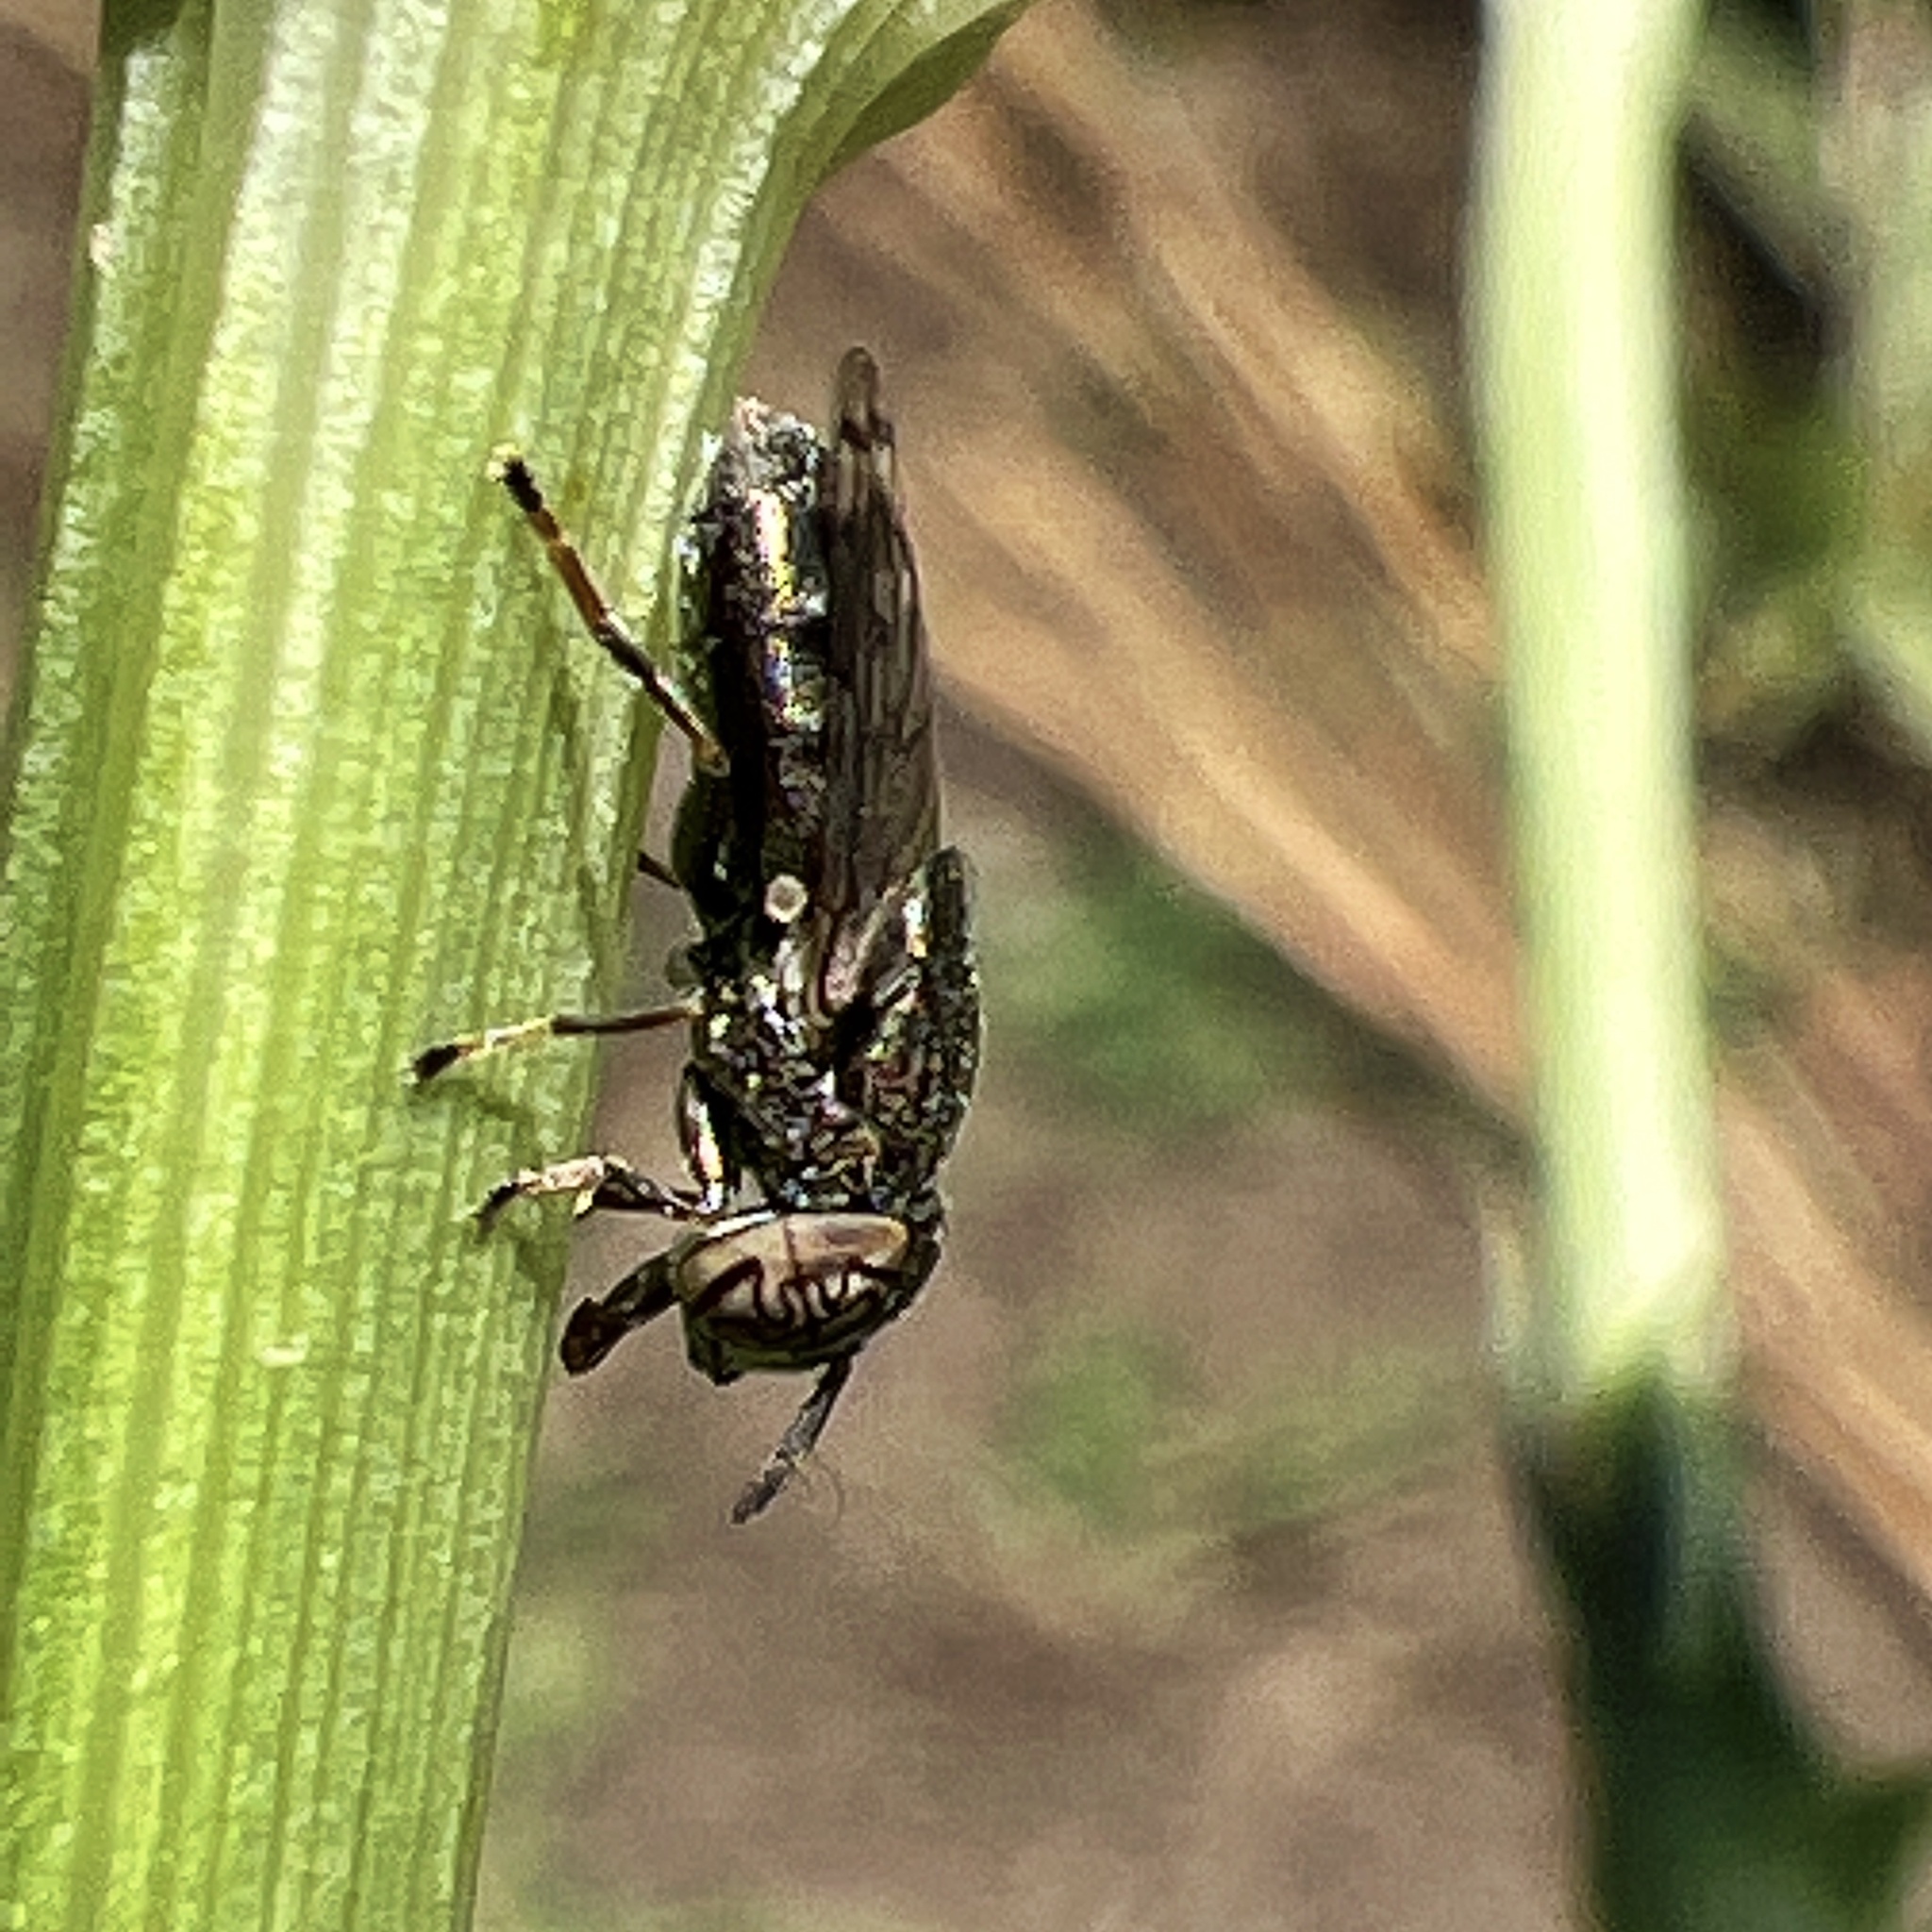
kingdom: Animalia
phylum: Arthropoda
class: Insecta
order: Diptera
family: Syrphidae
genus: Orthonevra
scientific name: Orthonevra nitida
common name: Wavy mucksucker
